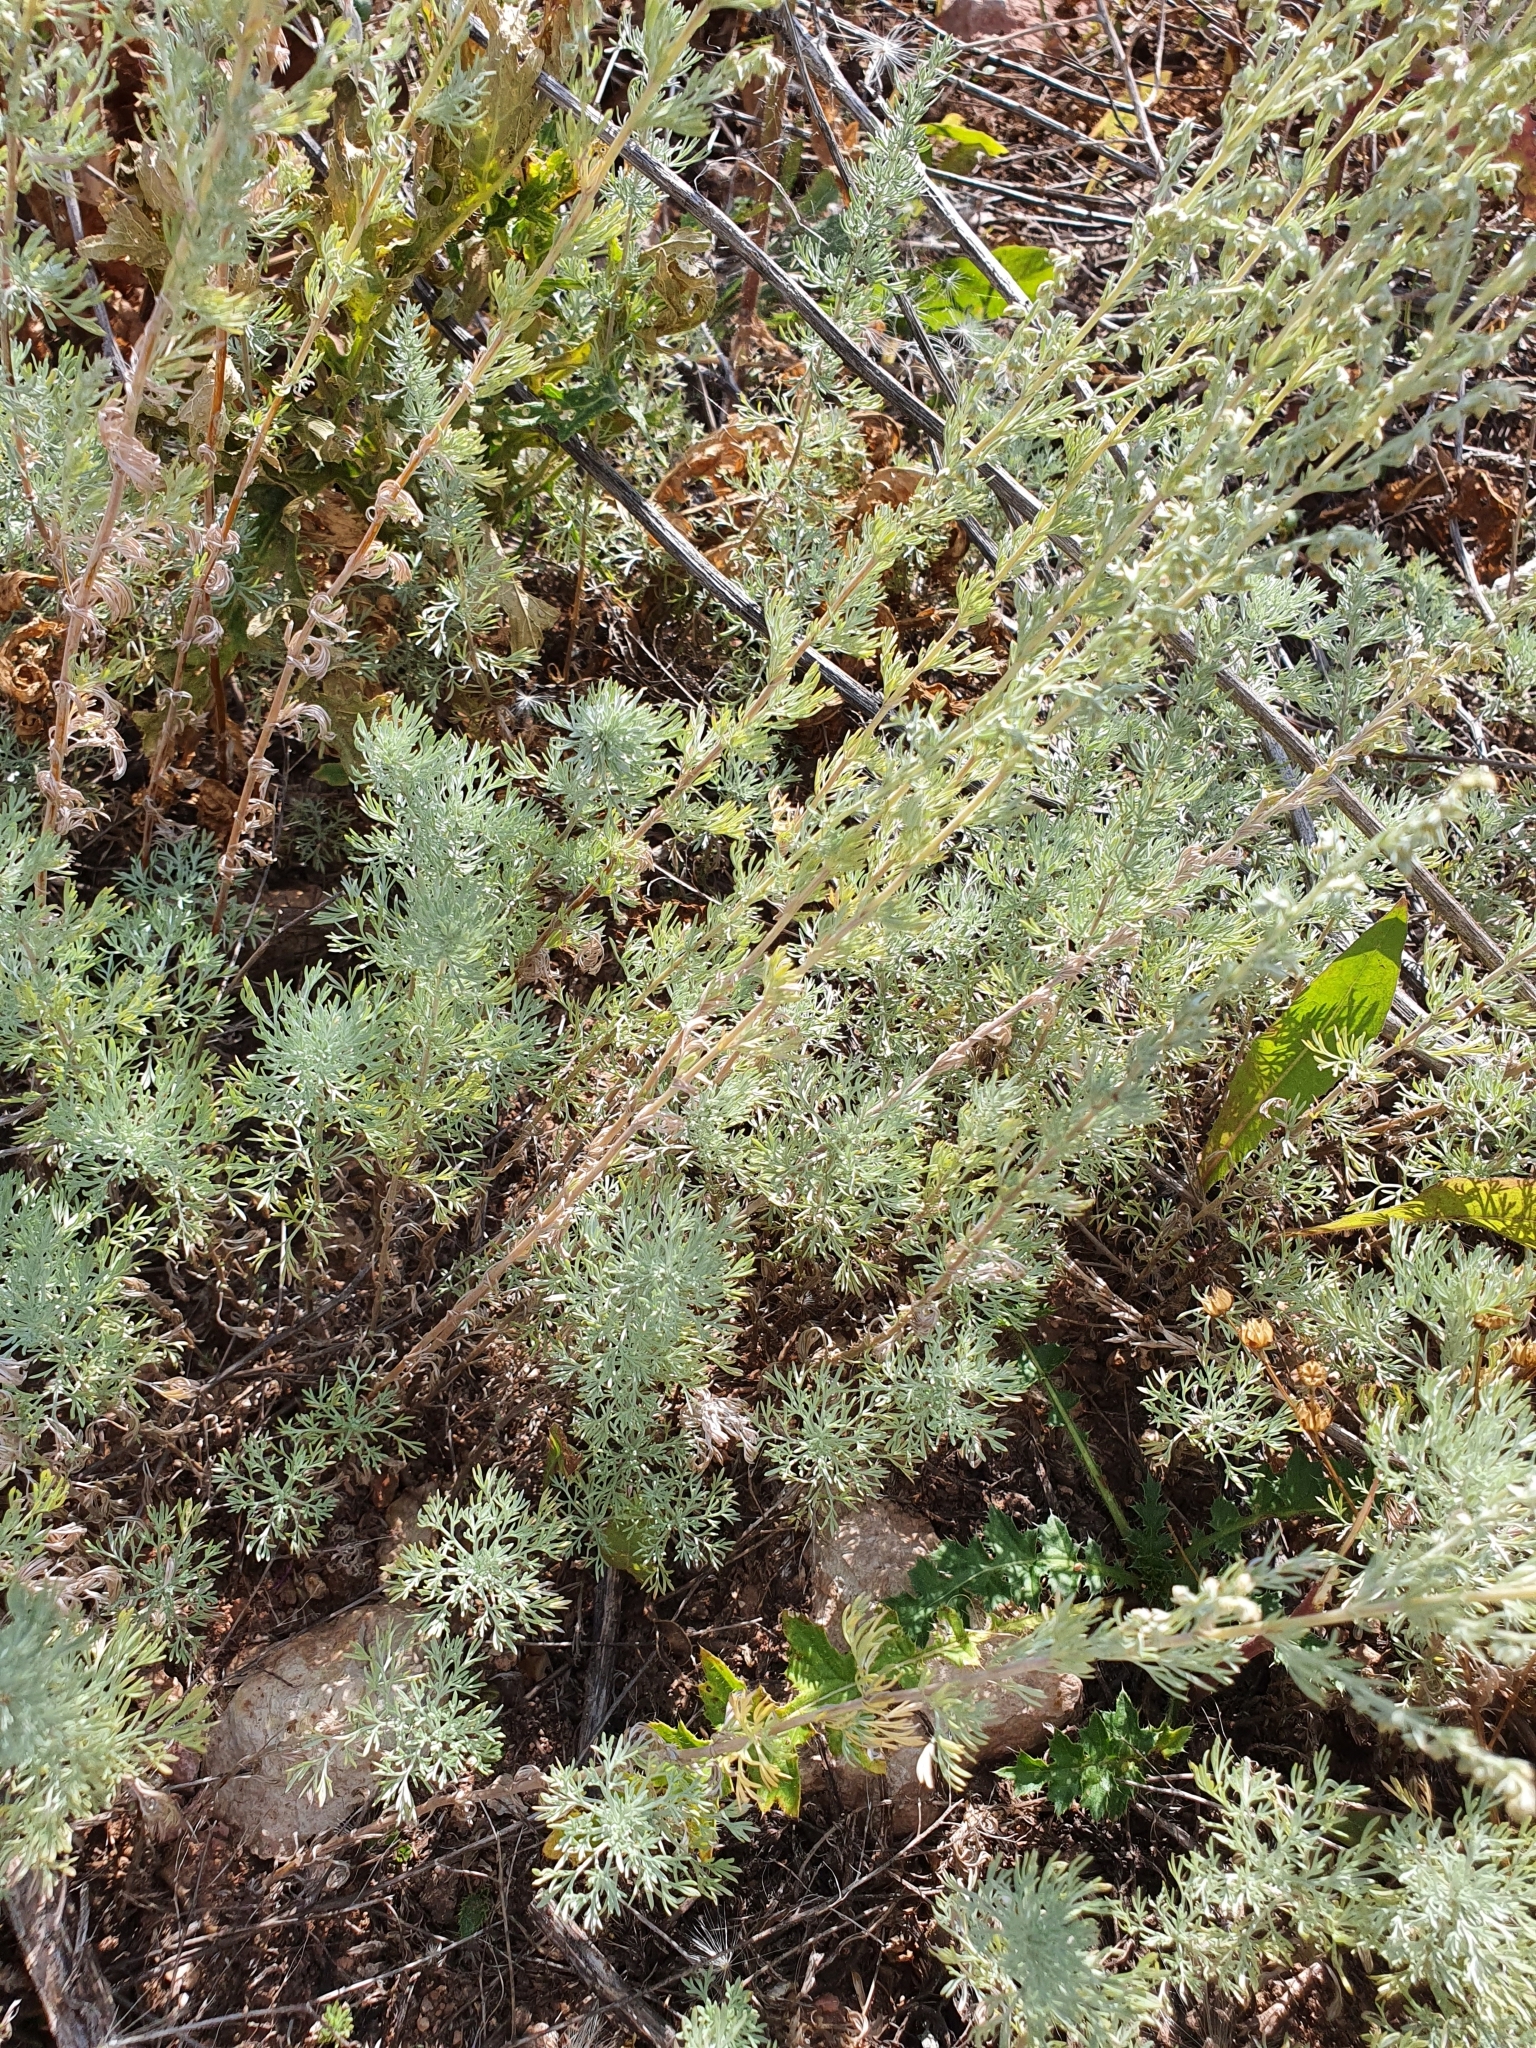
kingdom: Plantae
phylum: Tracheophyta
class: Magnoliopsida
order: Asterales
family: Asteraceae
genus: Artemisia
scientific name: Artemisia austriaca
